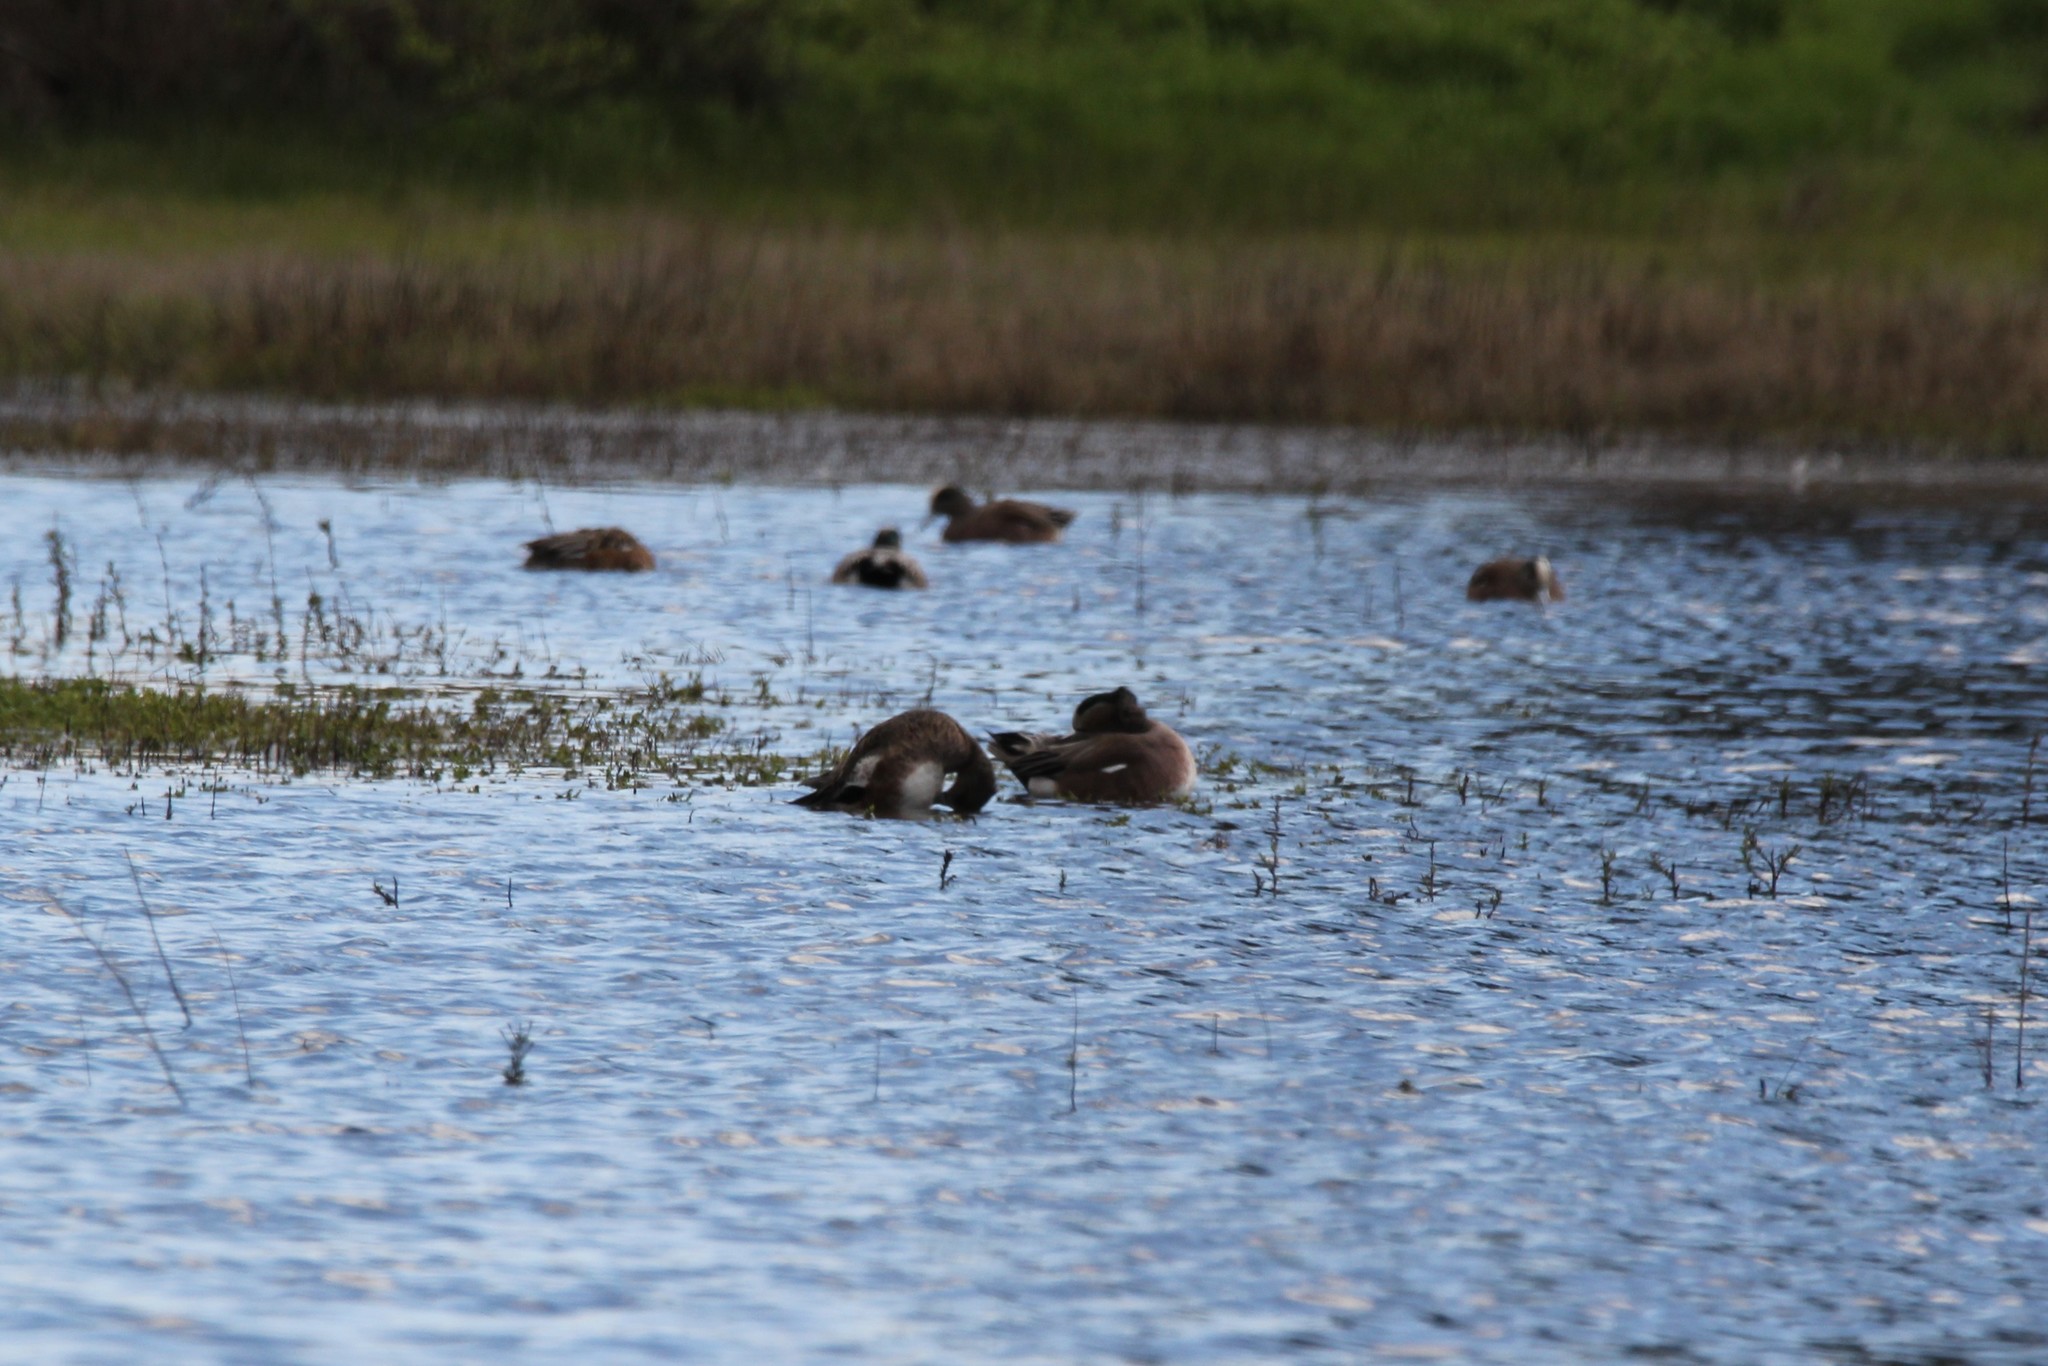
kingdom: Animalia
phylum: Chordata
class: Aves
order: Anseriformes
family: Anatidae
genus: Mareca
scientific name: Mareca americana
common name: American wigeon
